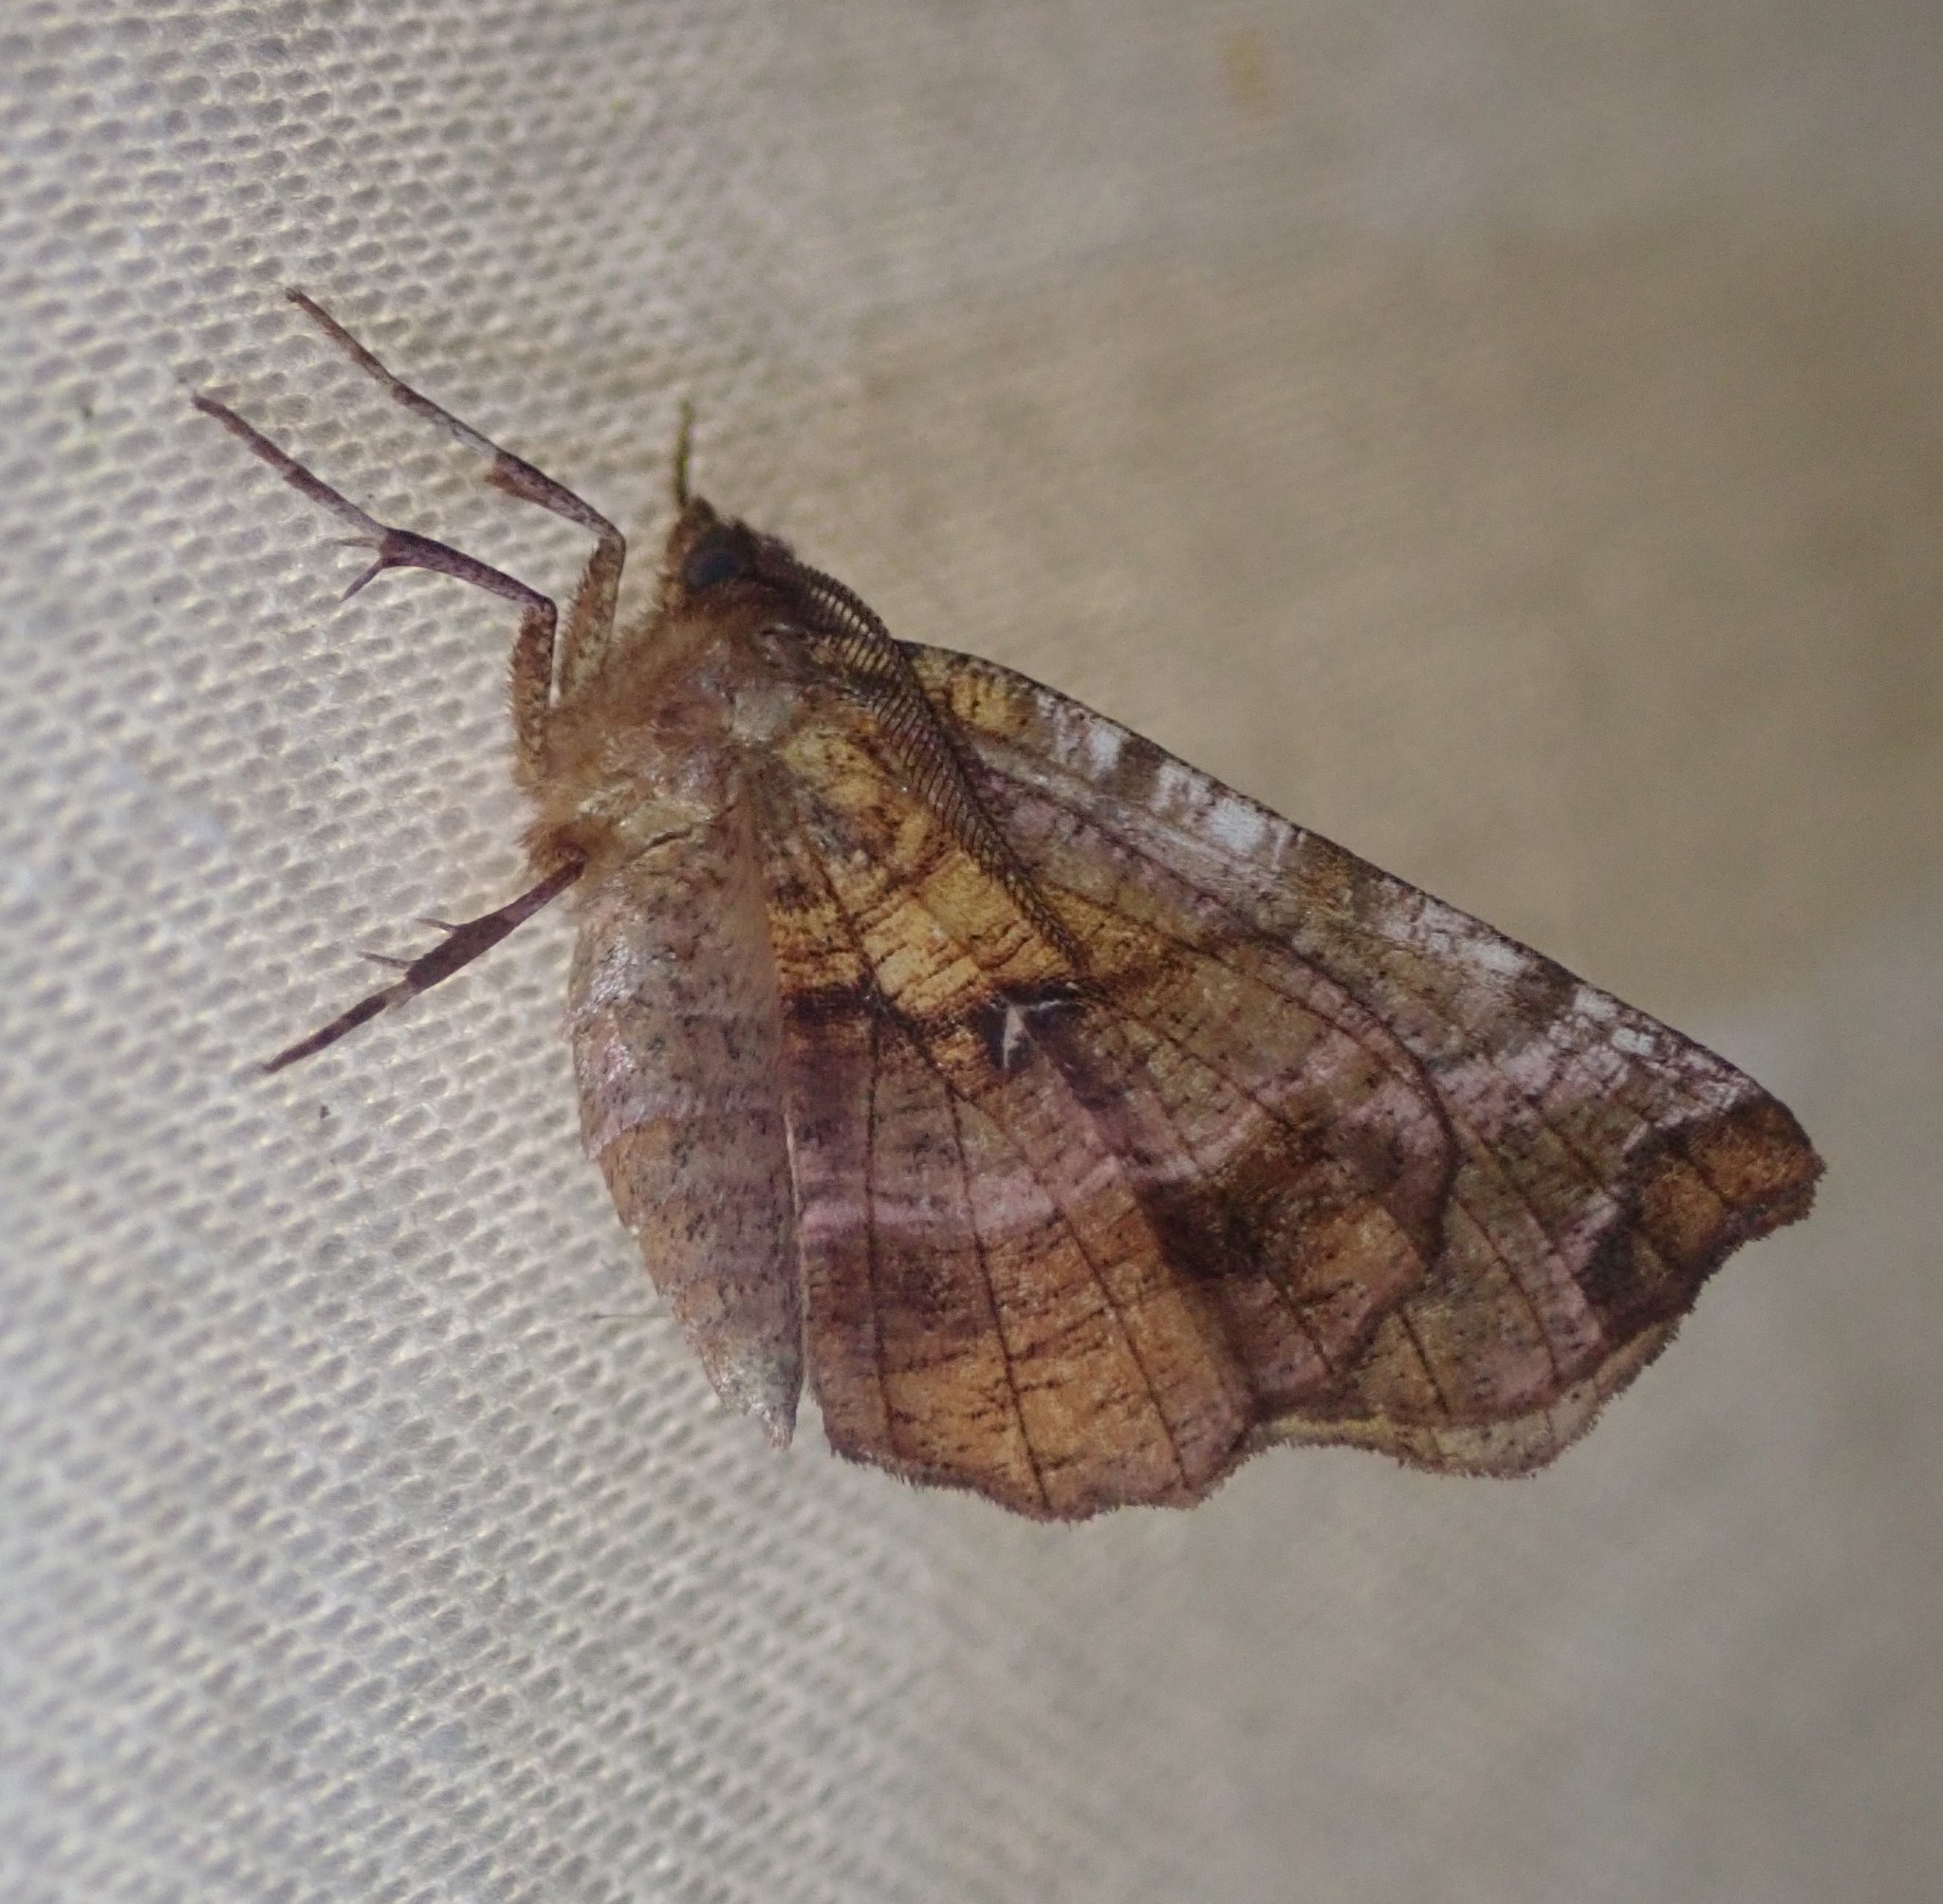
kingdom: Animalia
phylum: Arthropoda
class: Insecta
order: Lepidoptera
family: Geometridae
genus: Selenia
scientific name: Selenia dentaria
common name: Early thorn
